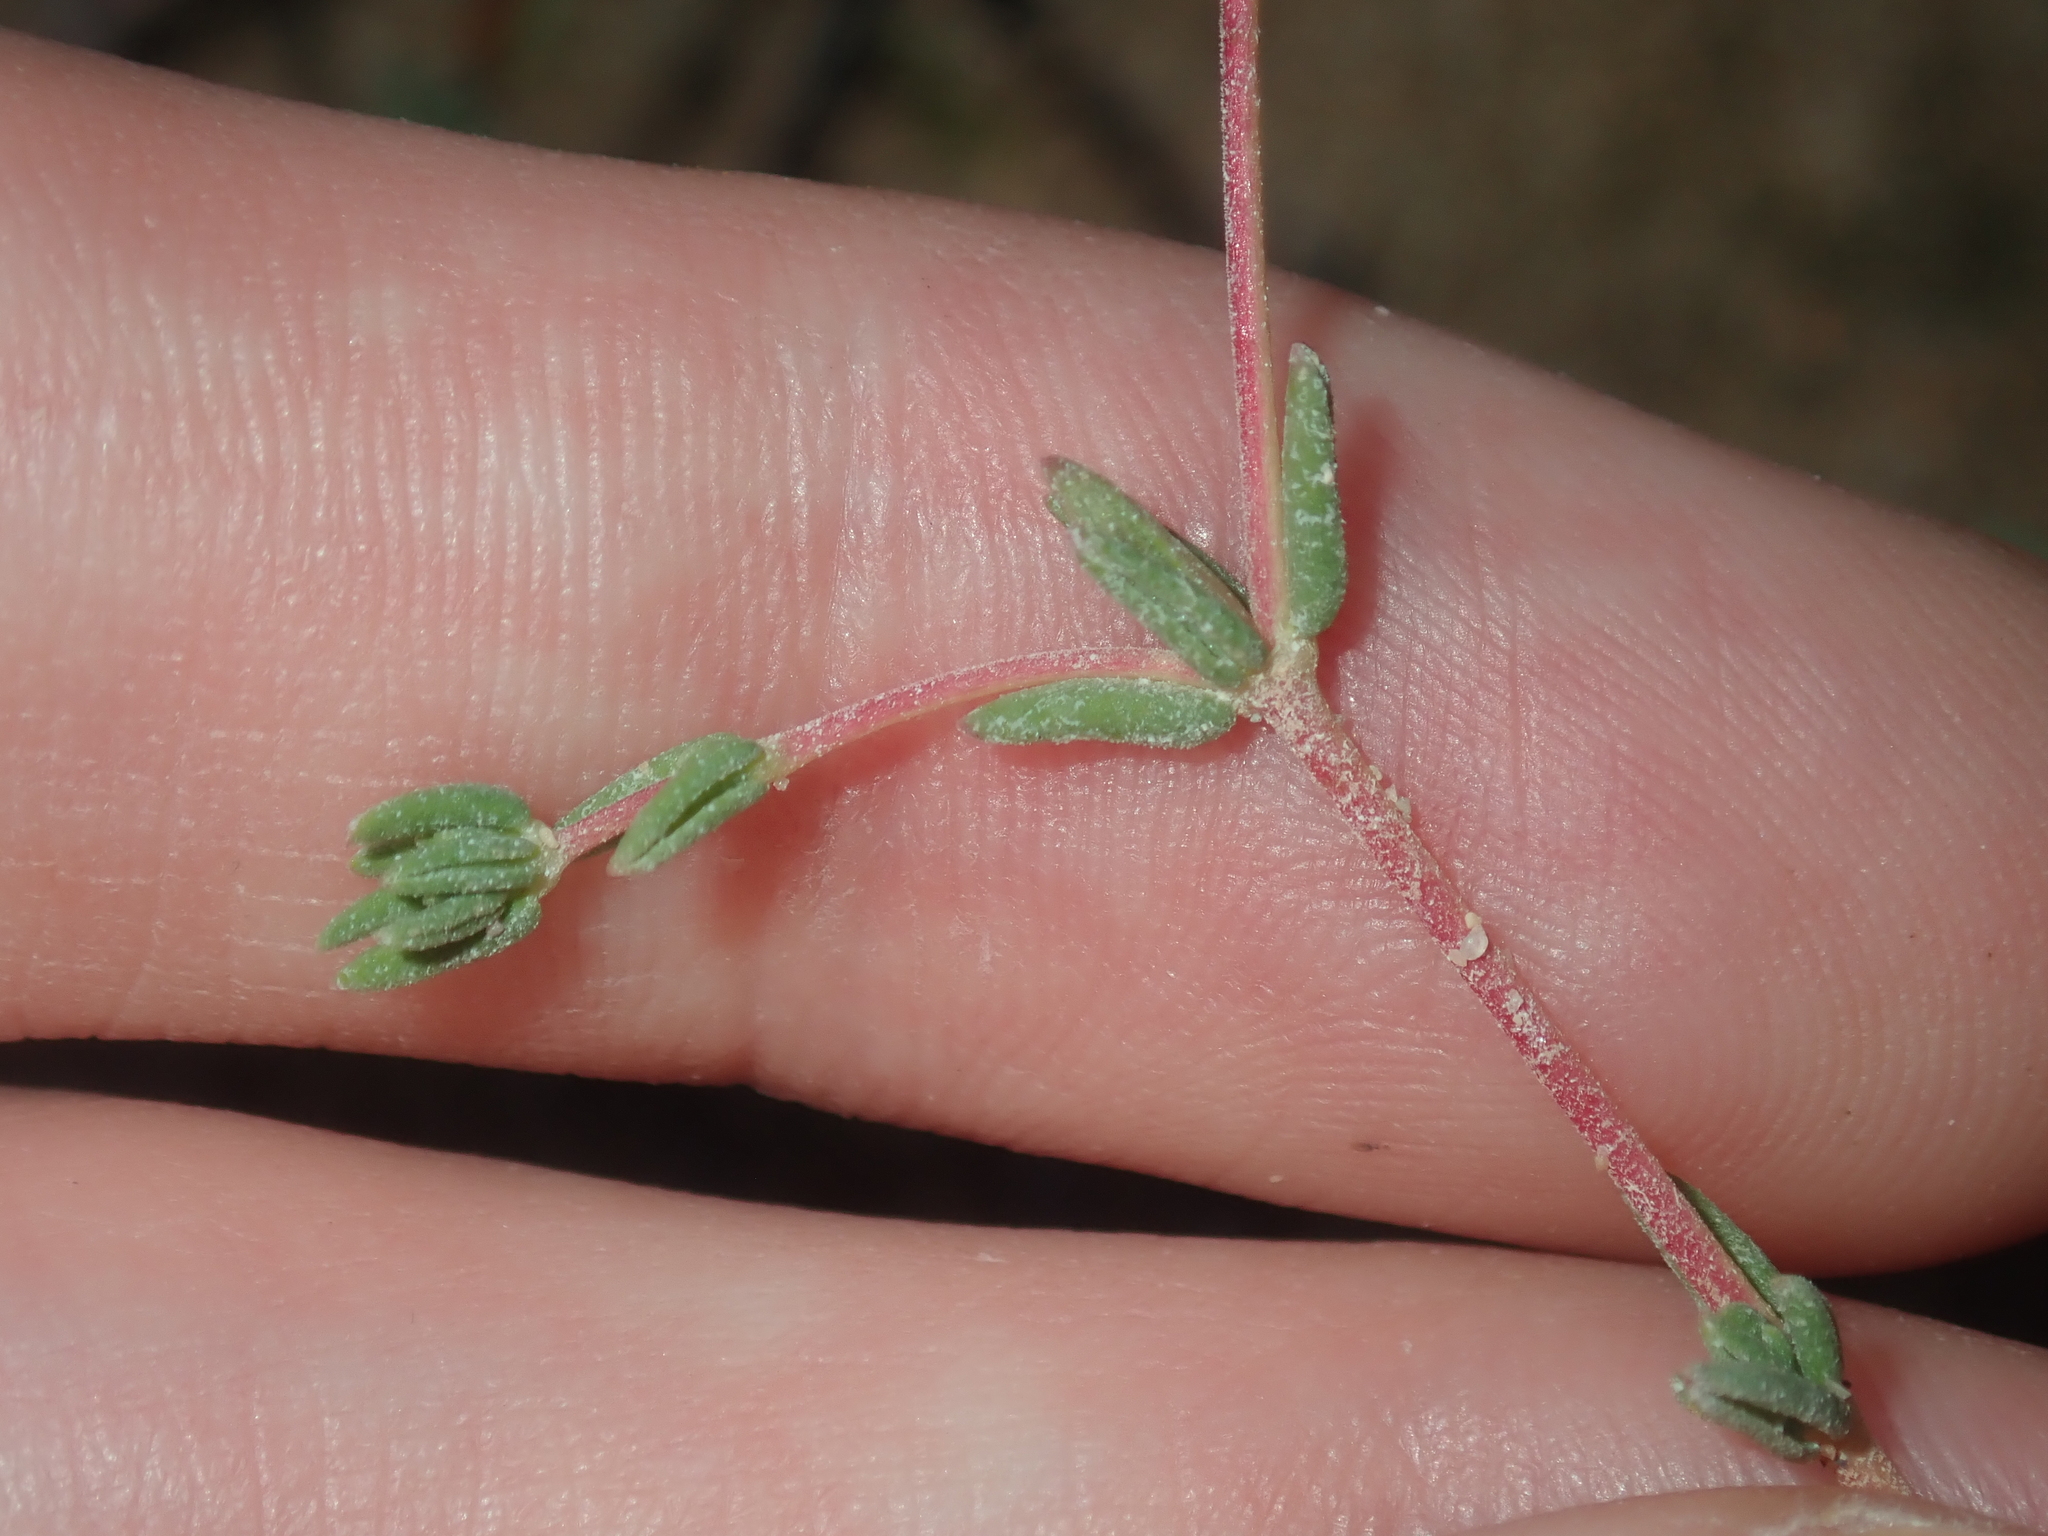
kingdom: Plantae
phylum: Tracheophyta
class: Magnoliopsida
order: Caryophyllales
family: Frankeniaceae
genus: Frankenia
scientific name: Frankenia pauciflora
